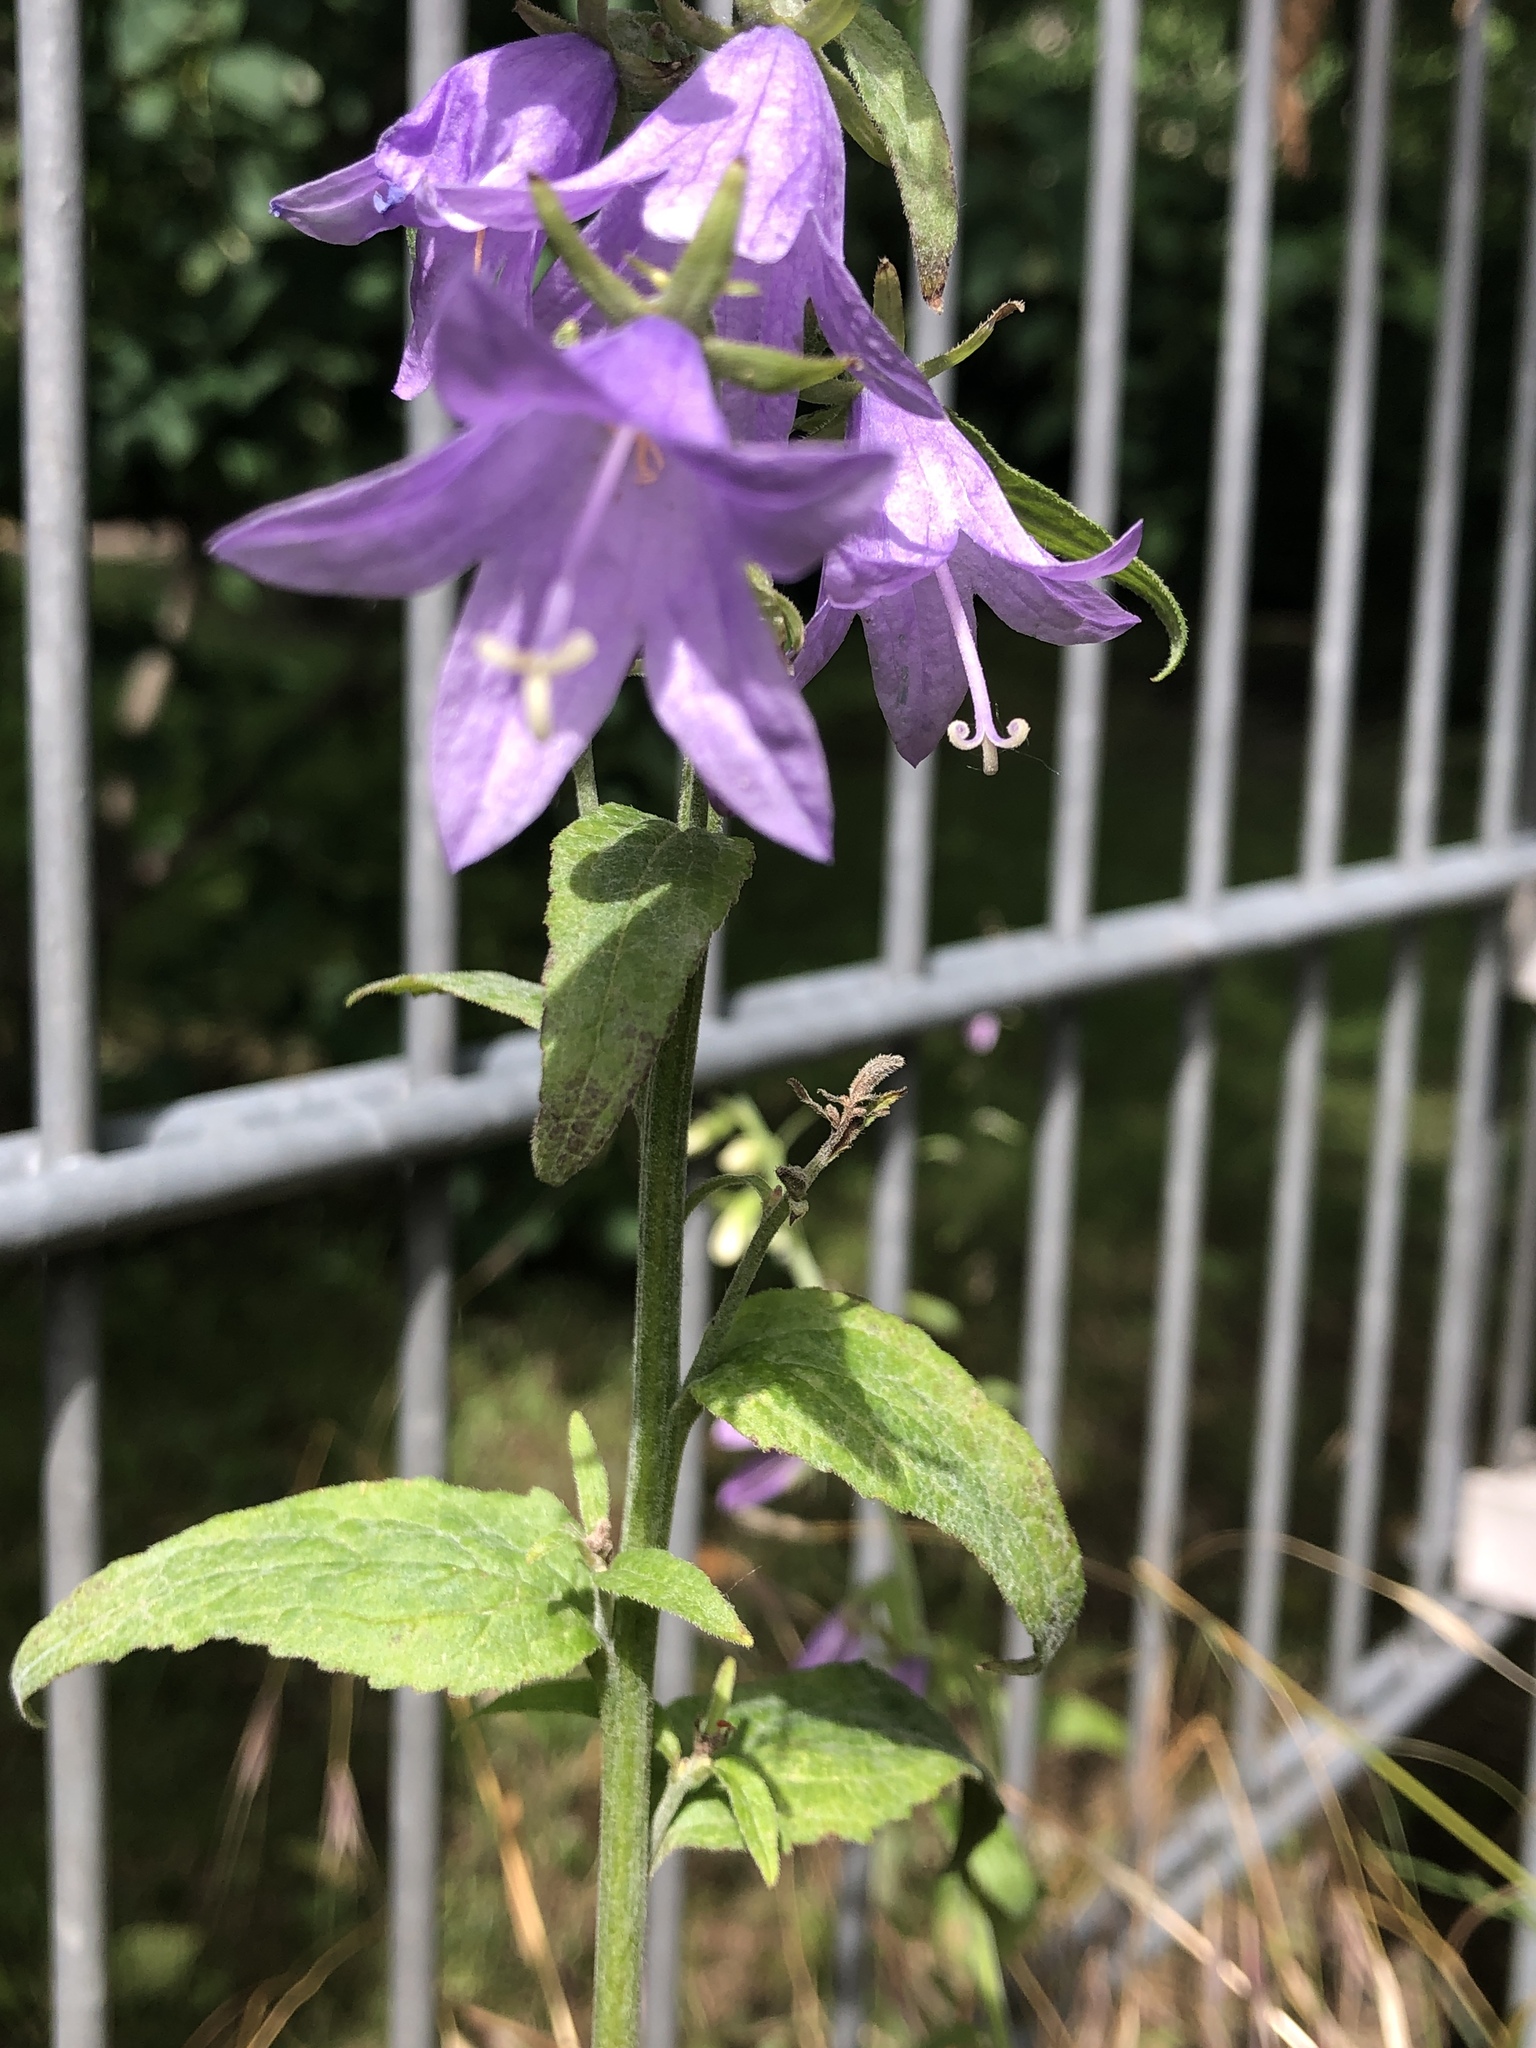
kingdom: Plantae
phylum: Tracheophyta
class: Magnoliopsida
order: Asterales
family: Campanulaceae
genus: Campanula
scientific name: Campanula rapunculoides
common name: Creeping bellflower
